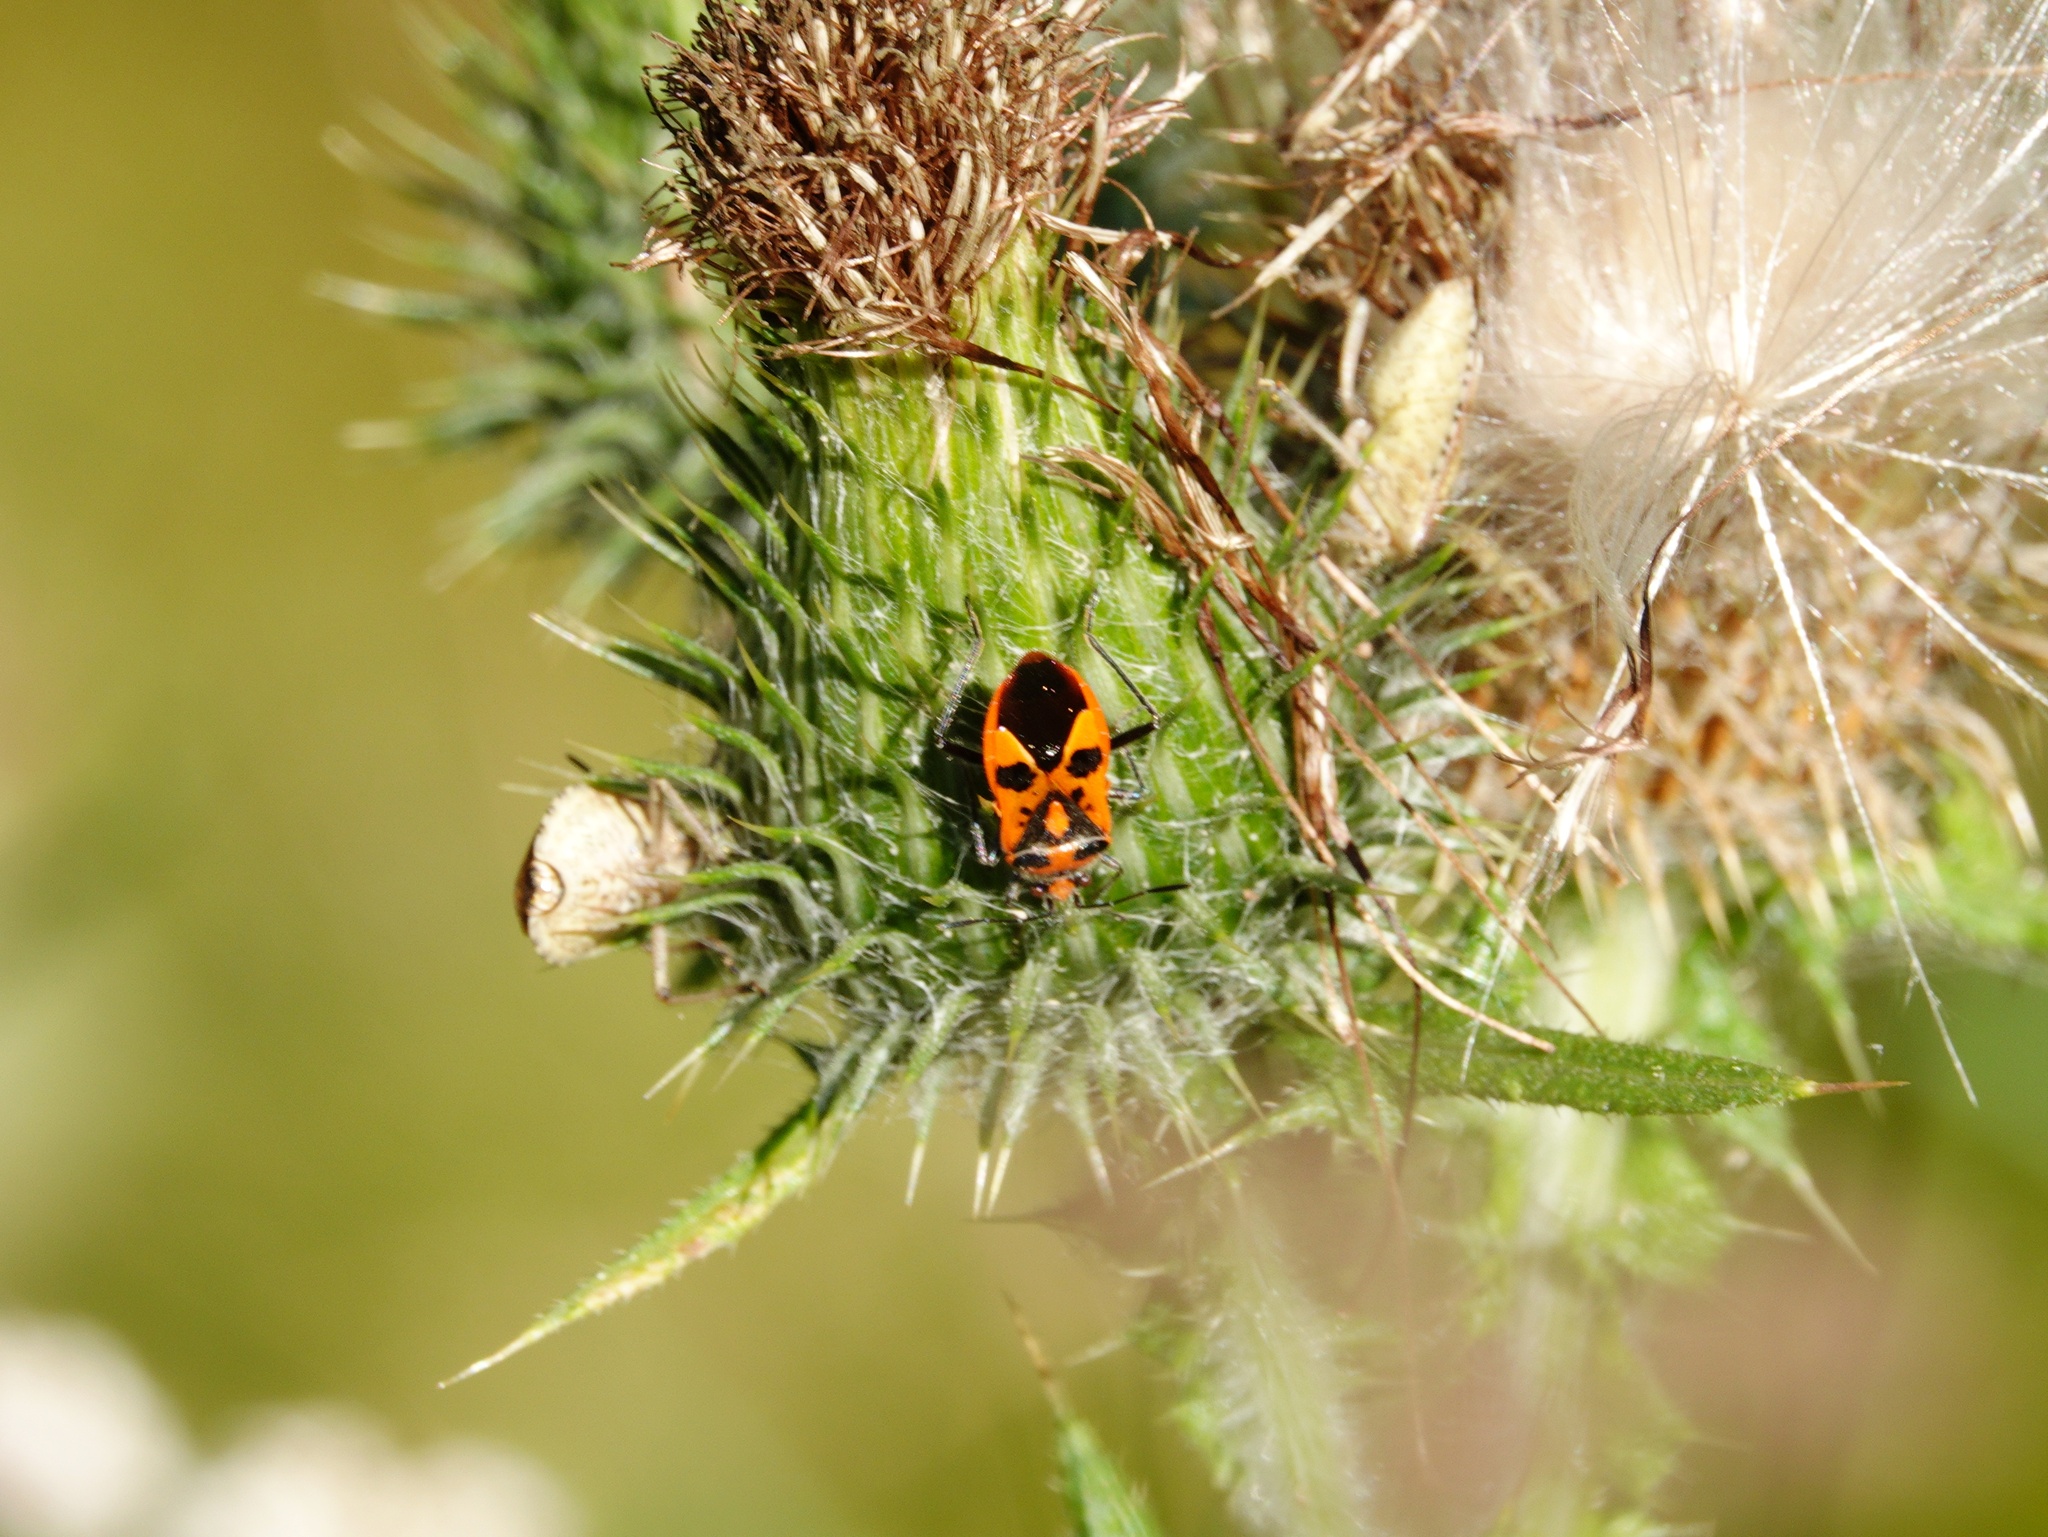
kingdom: Animalia
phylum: Arthropoda
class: Insecta
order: Hemiptera
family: Rhopalidae
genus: Corizus
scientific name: Corizus hyoscyami
